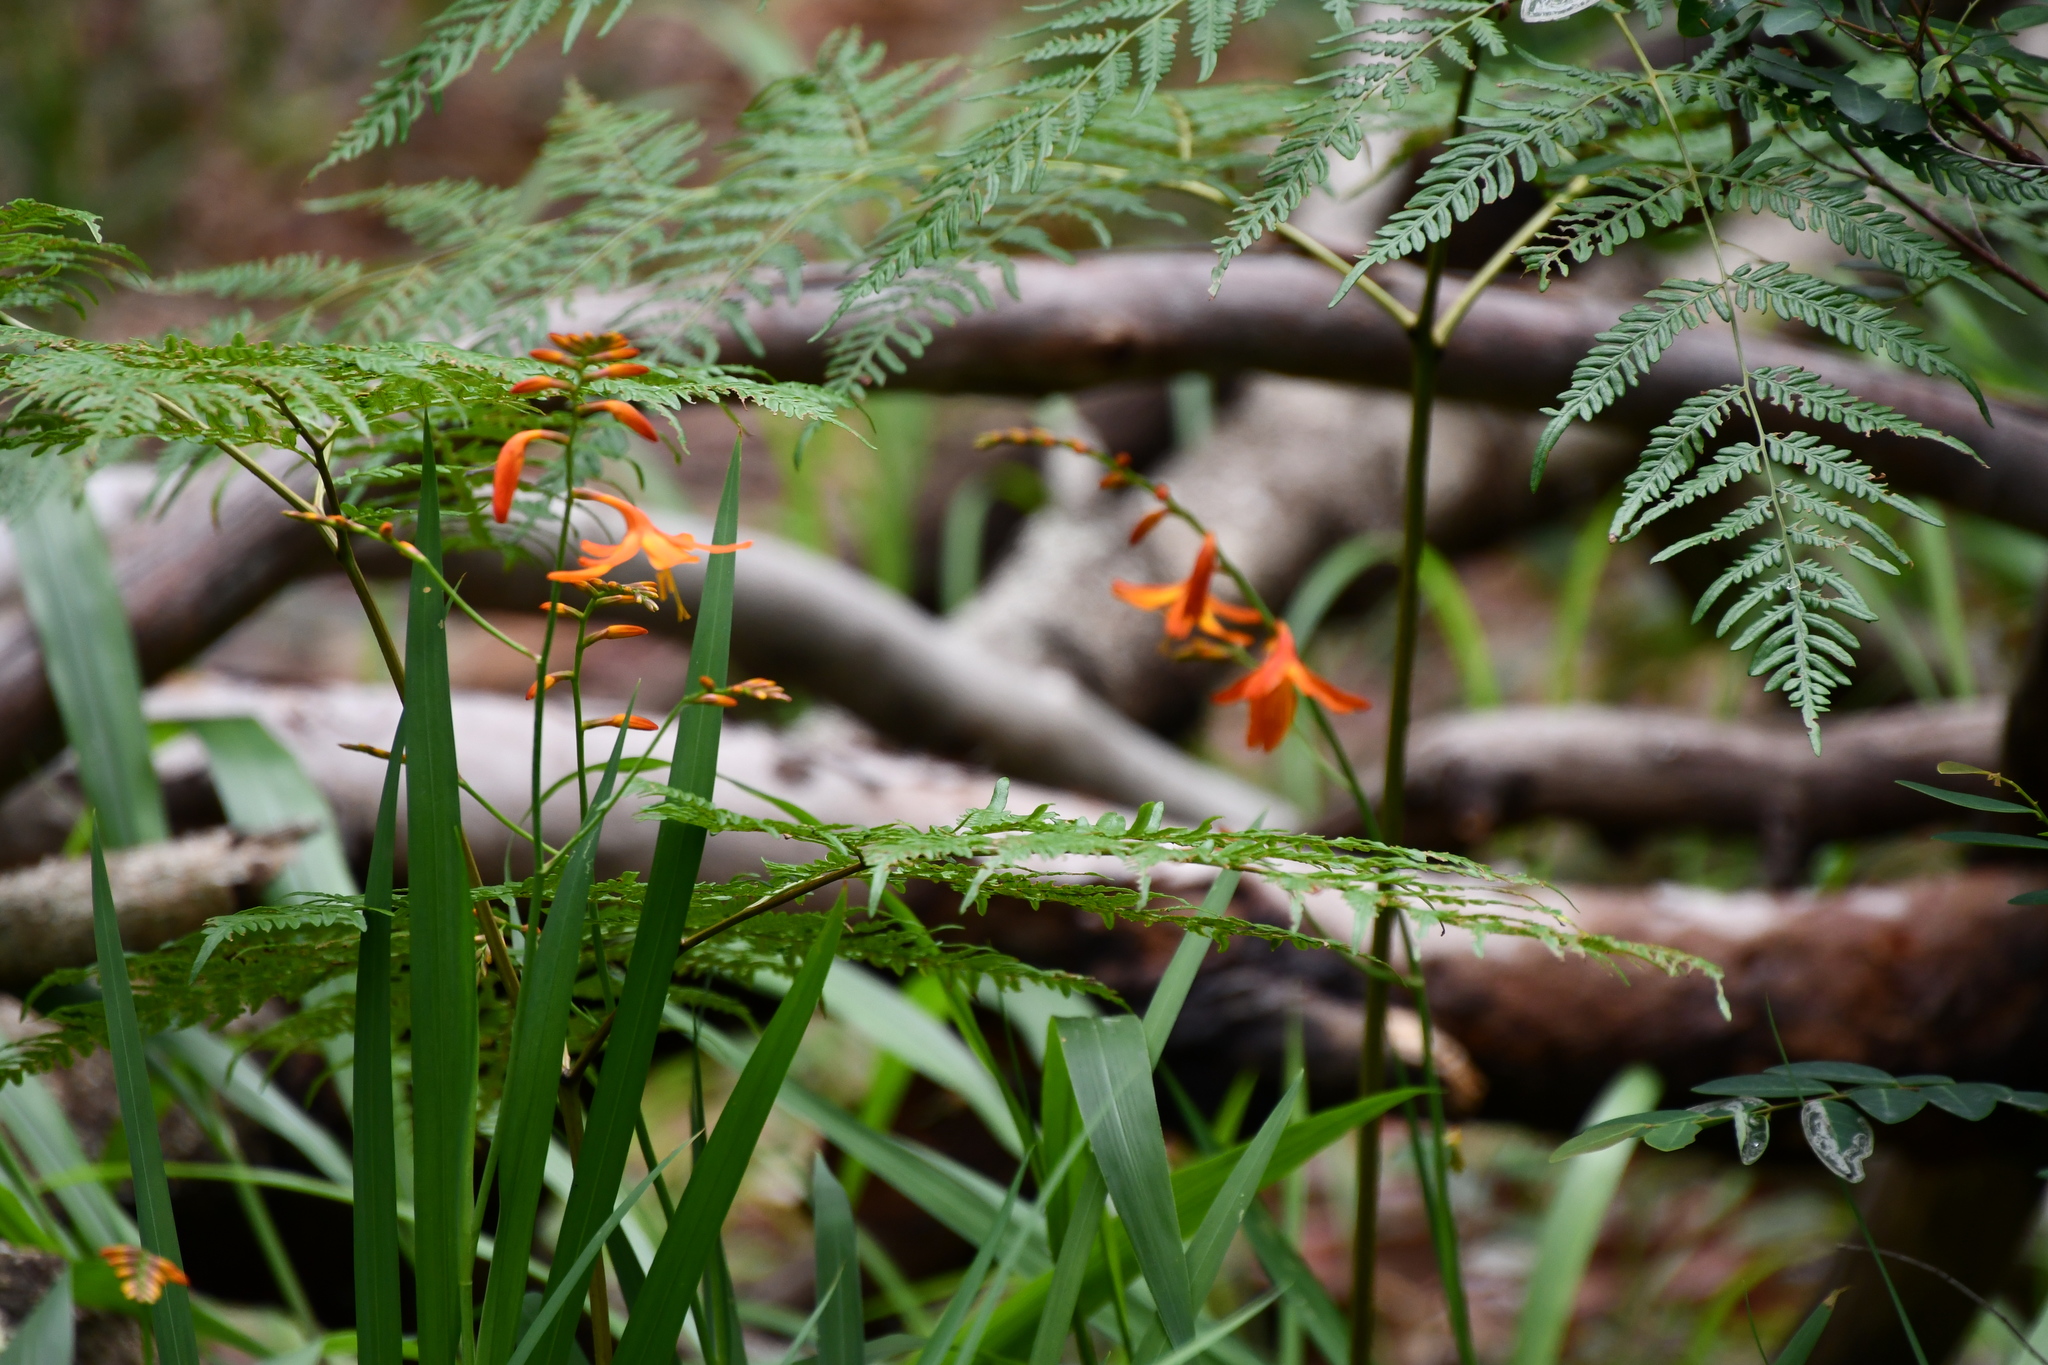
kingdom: Plantae
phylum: Tracheophyta
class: Liliopsida
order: Asparagales
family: Iridaceae
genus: Crocosmia
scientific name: Crocosmia crocosmiiflora
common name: Montbretia
